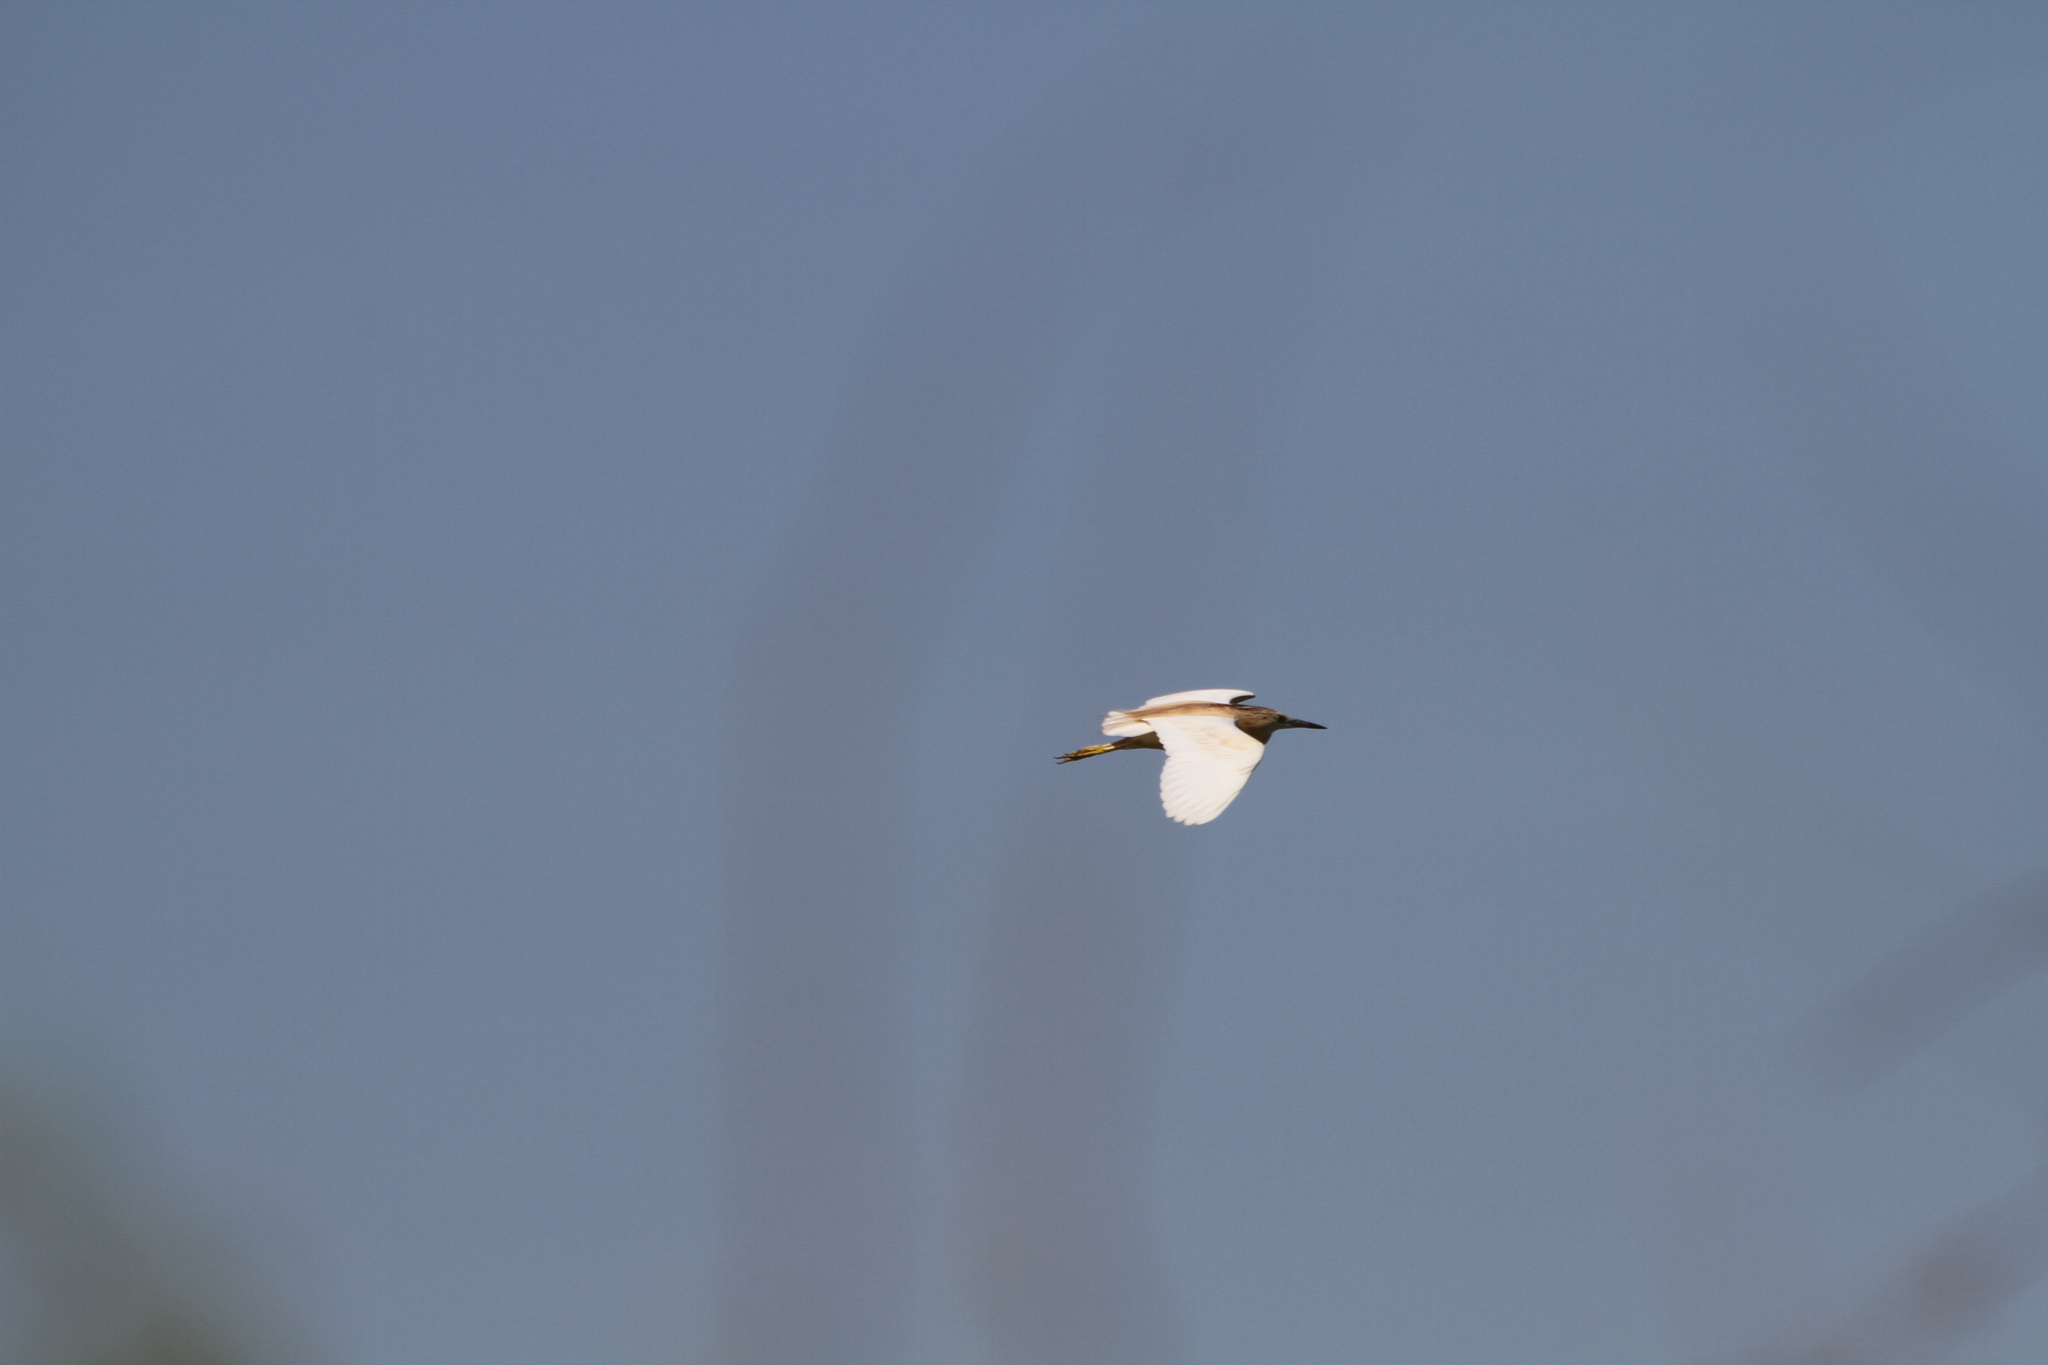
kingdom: Animalia
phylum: Chordata
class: Aves
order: Pelecaniformes
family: Ardeidae
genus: Ardeola
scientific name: Ardeola ralloides
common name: Squacco heron
